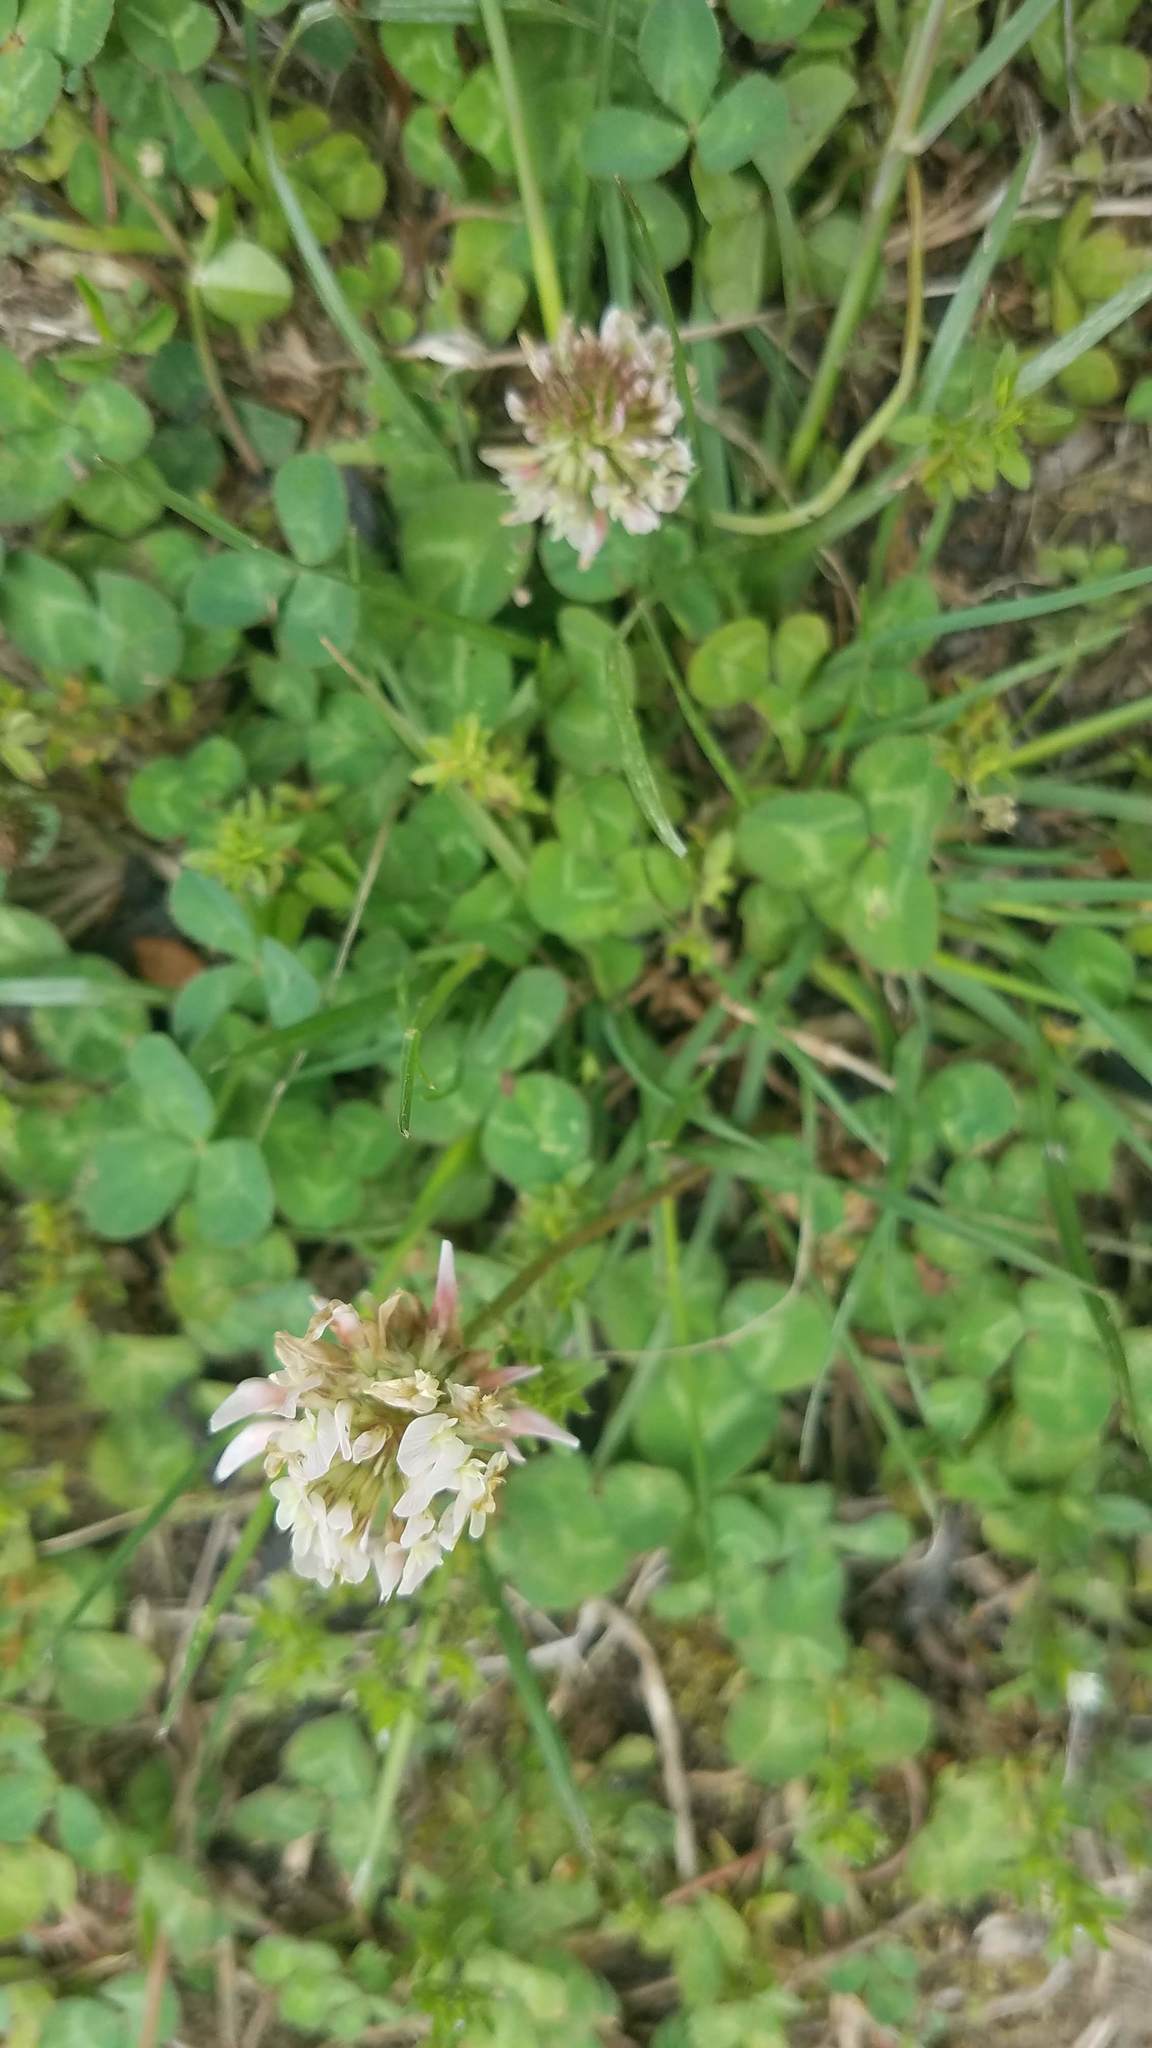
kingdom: Plantae
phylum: Tracheophyta
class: Magnoliopsida
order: Fabales
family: Fabaceae
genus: Trifolium
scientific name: Trifolium repens
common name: White clover
